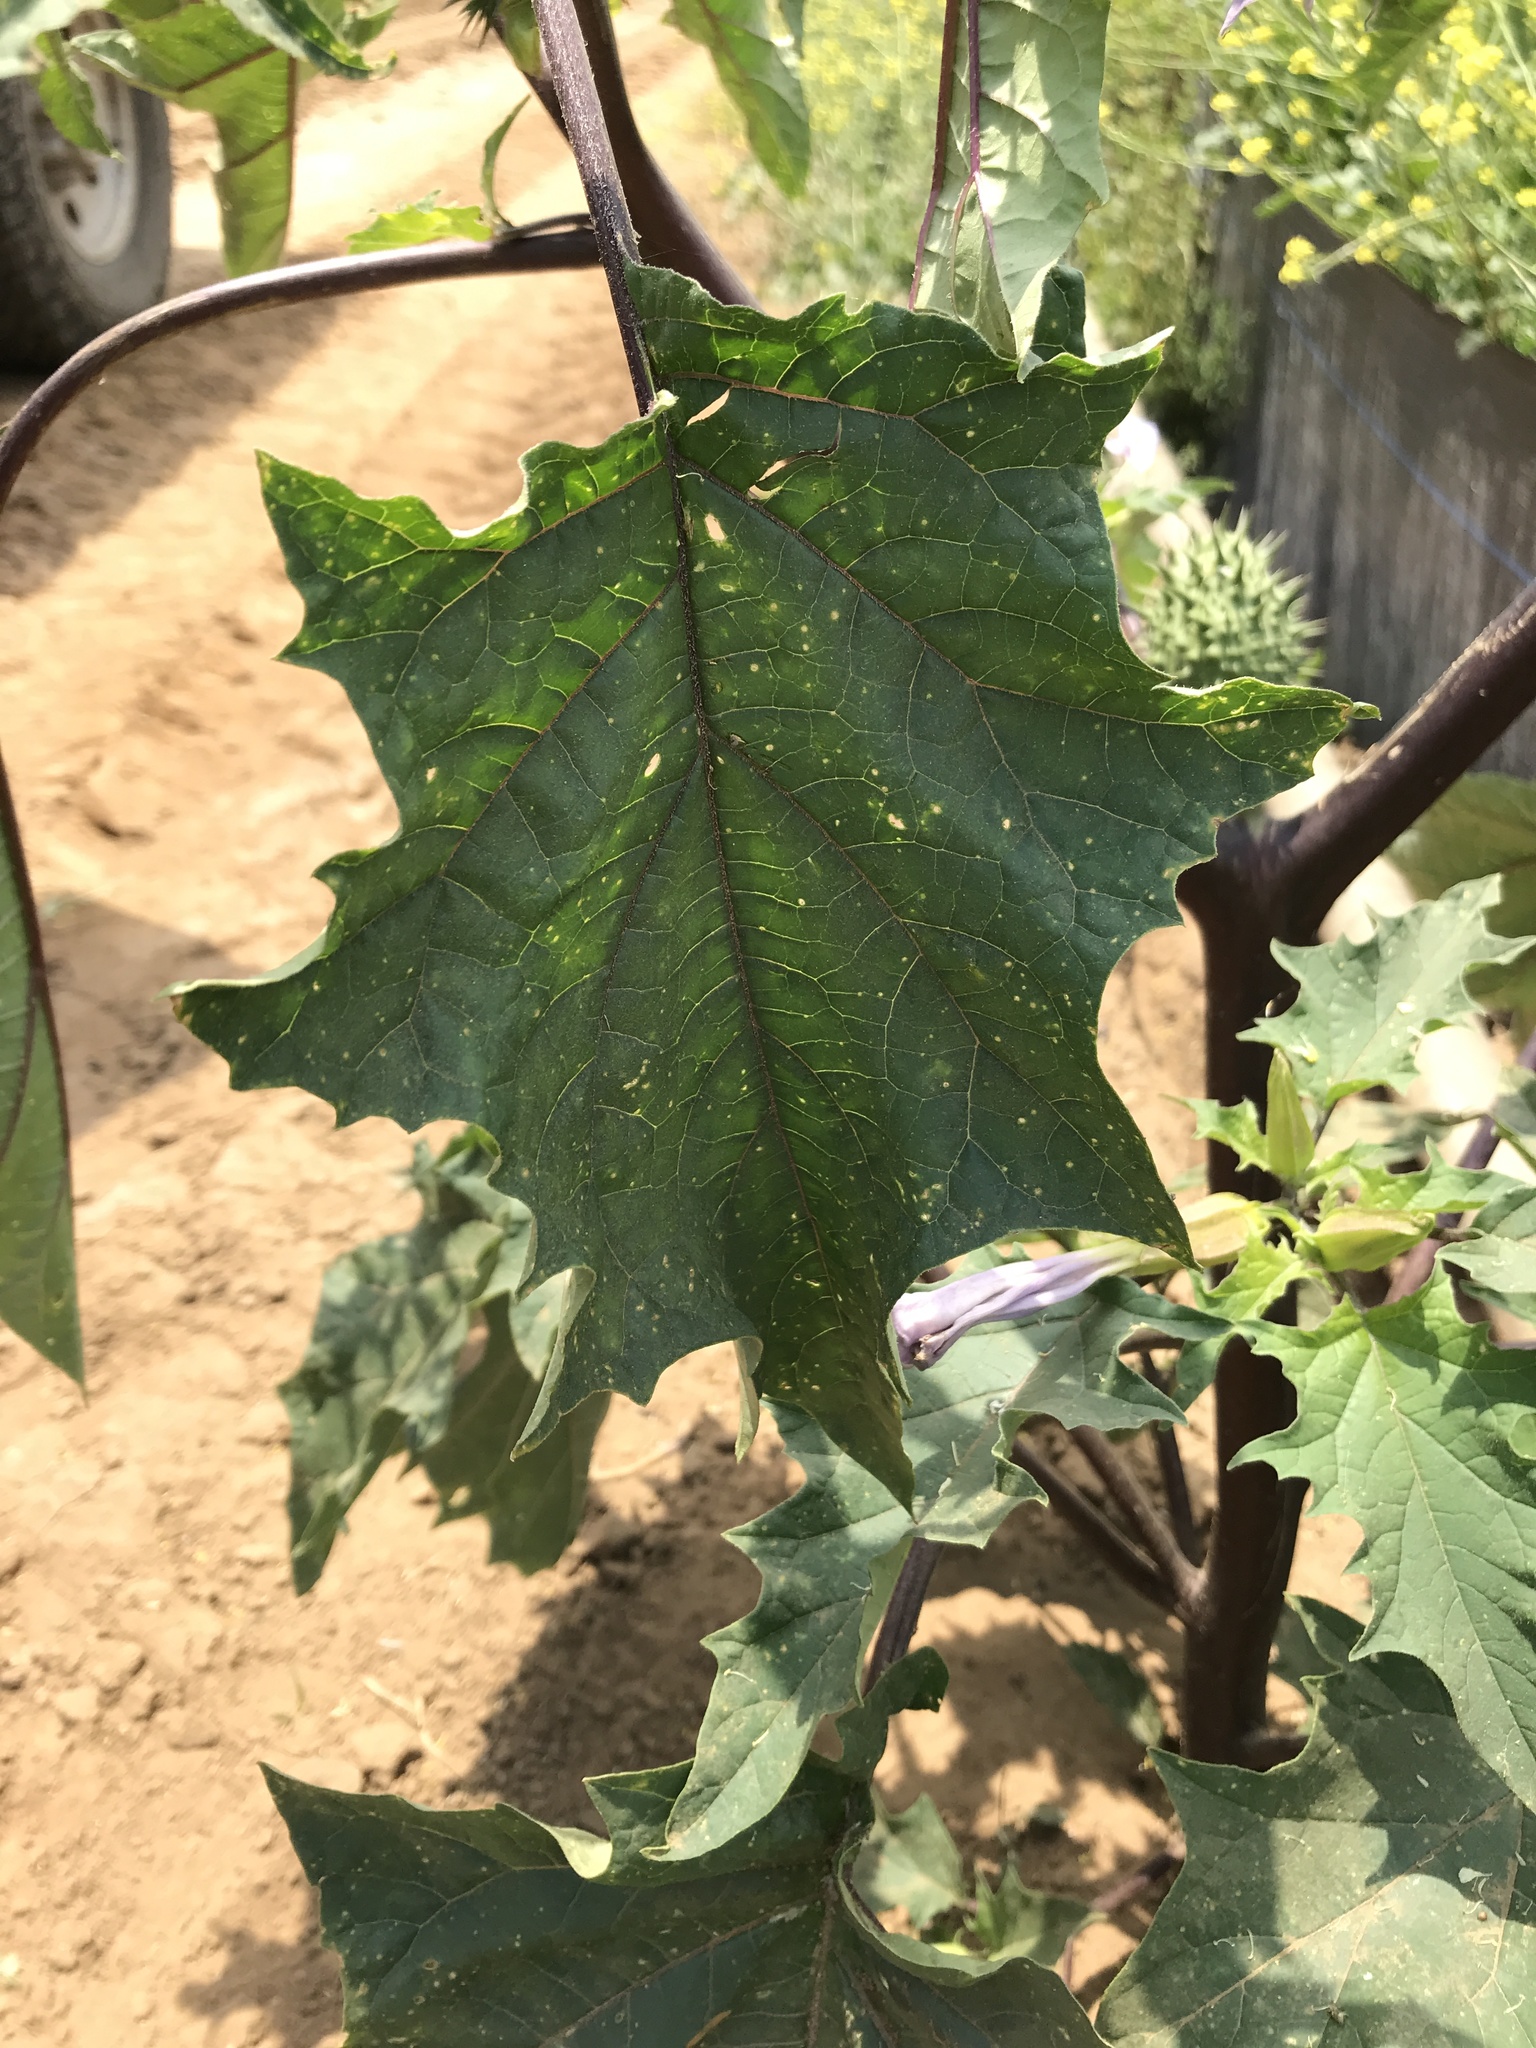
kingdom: Plantae
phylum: Tracheophyta
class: Magnoliopsida
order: Solanales
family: Solanaceae
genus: Datura
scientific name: Datura stramonium
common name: Thorn-apple
